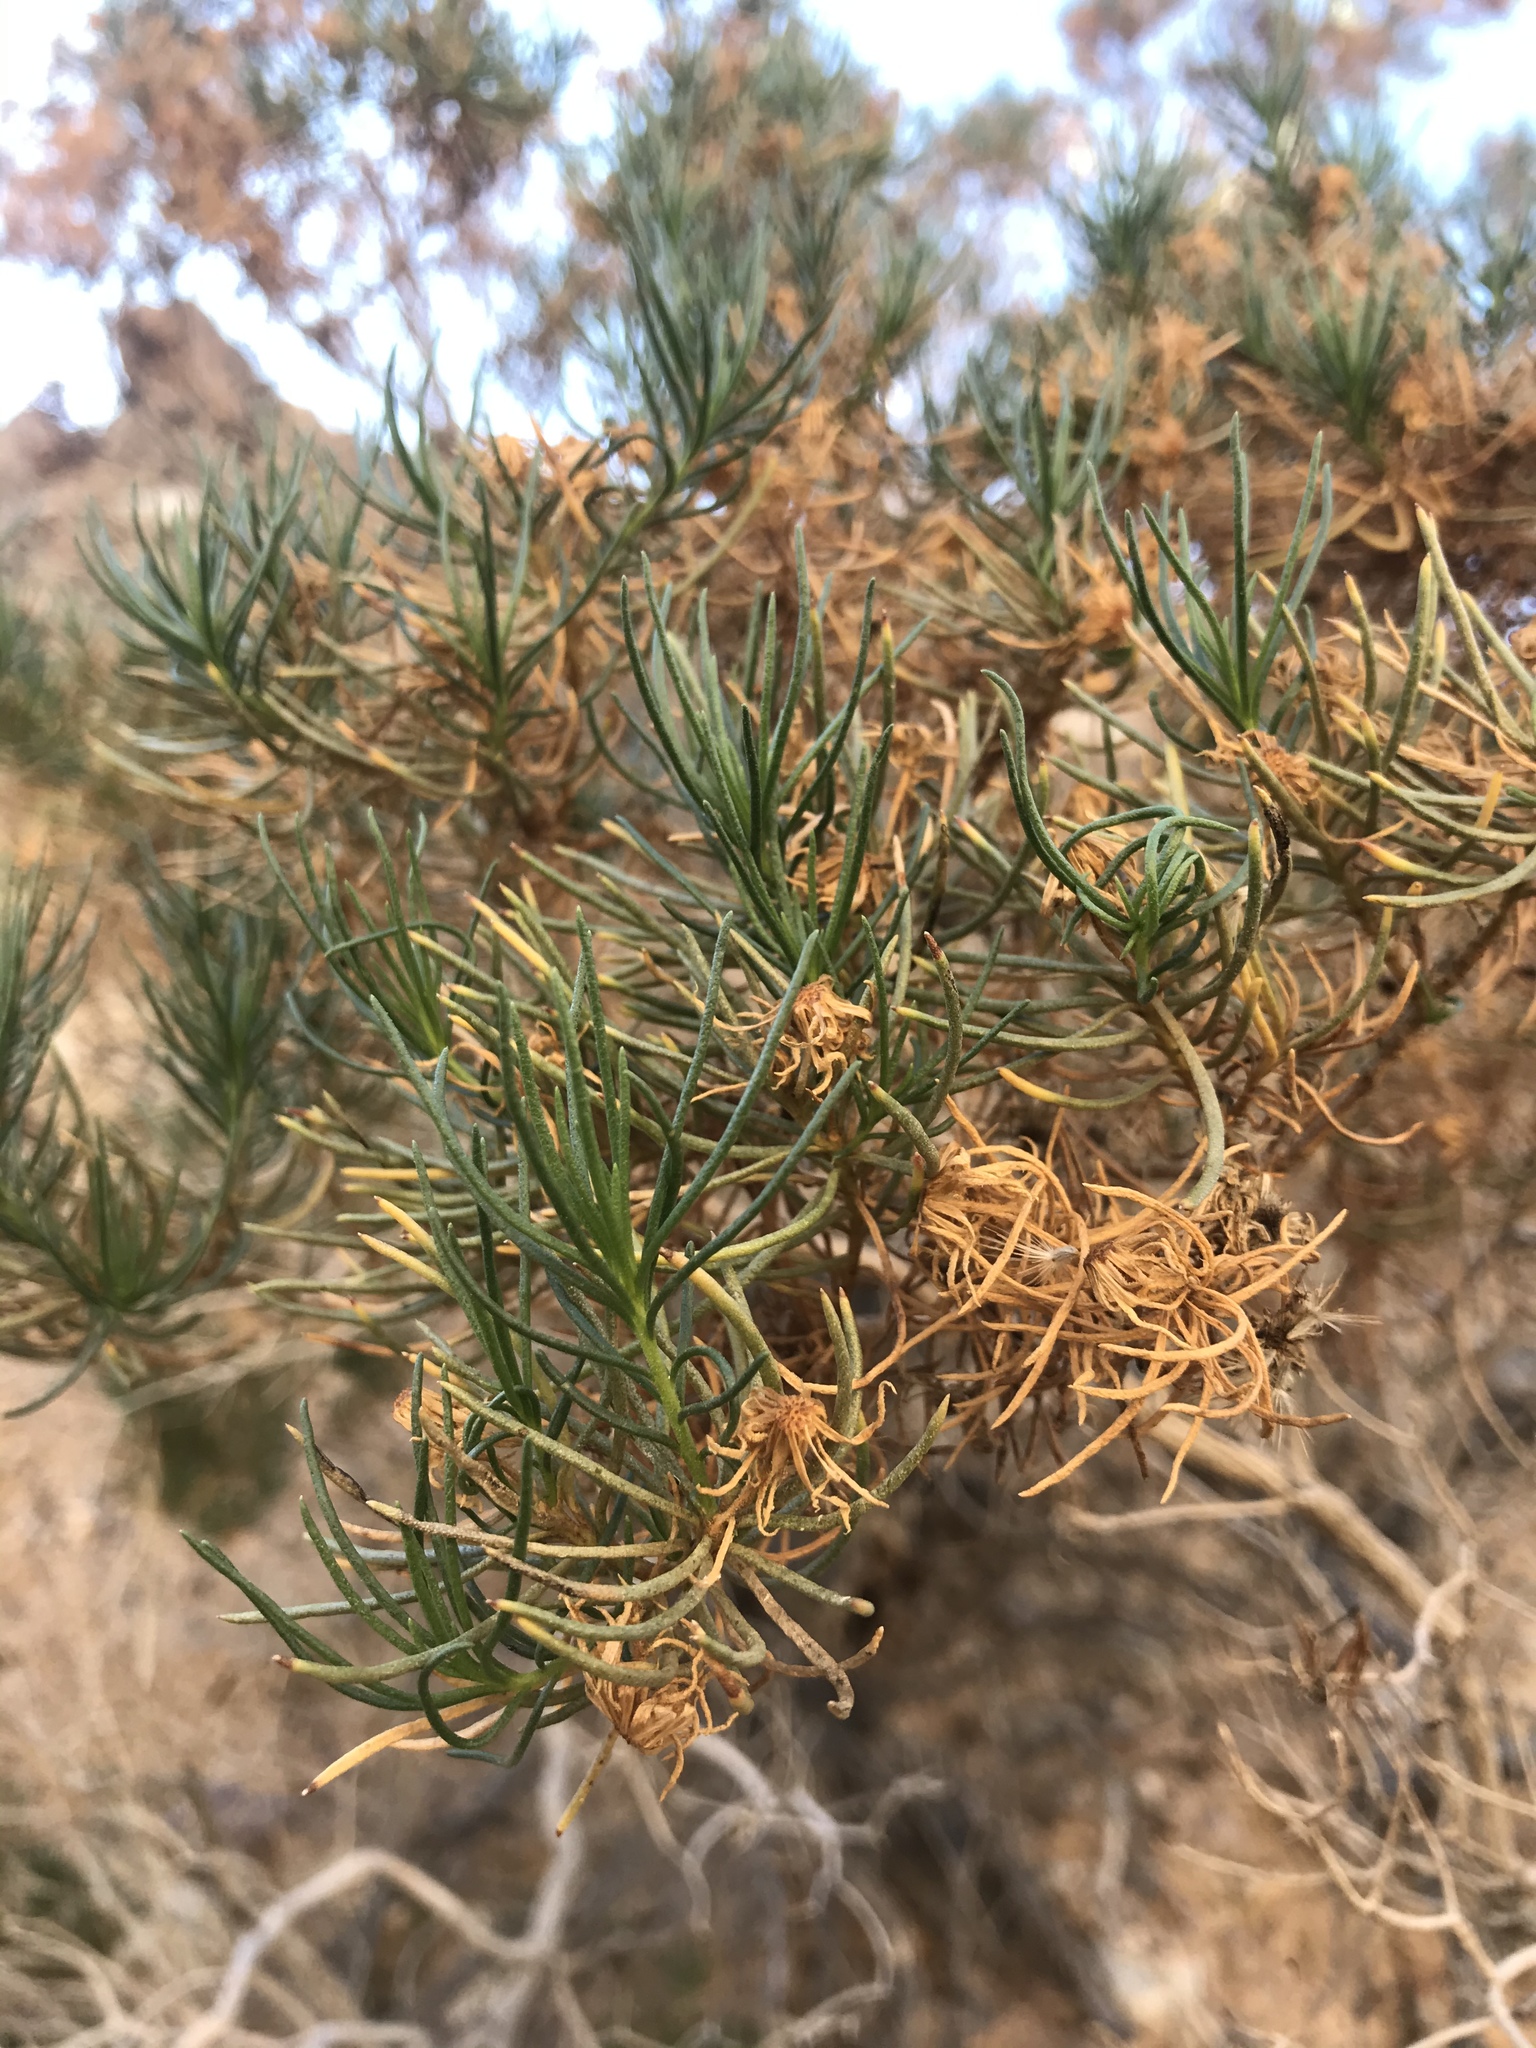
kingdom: Plantae
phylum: Tracheophyta
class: Magnoliopsida
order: Asterales
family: Asteraceae
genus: Peucephyllum
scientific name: Peucephyllum schottii
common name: Pygmy-cedar
